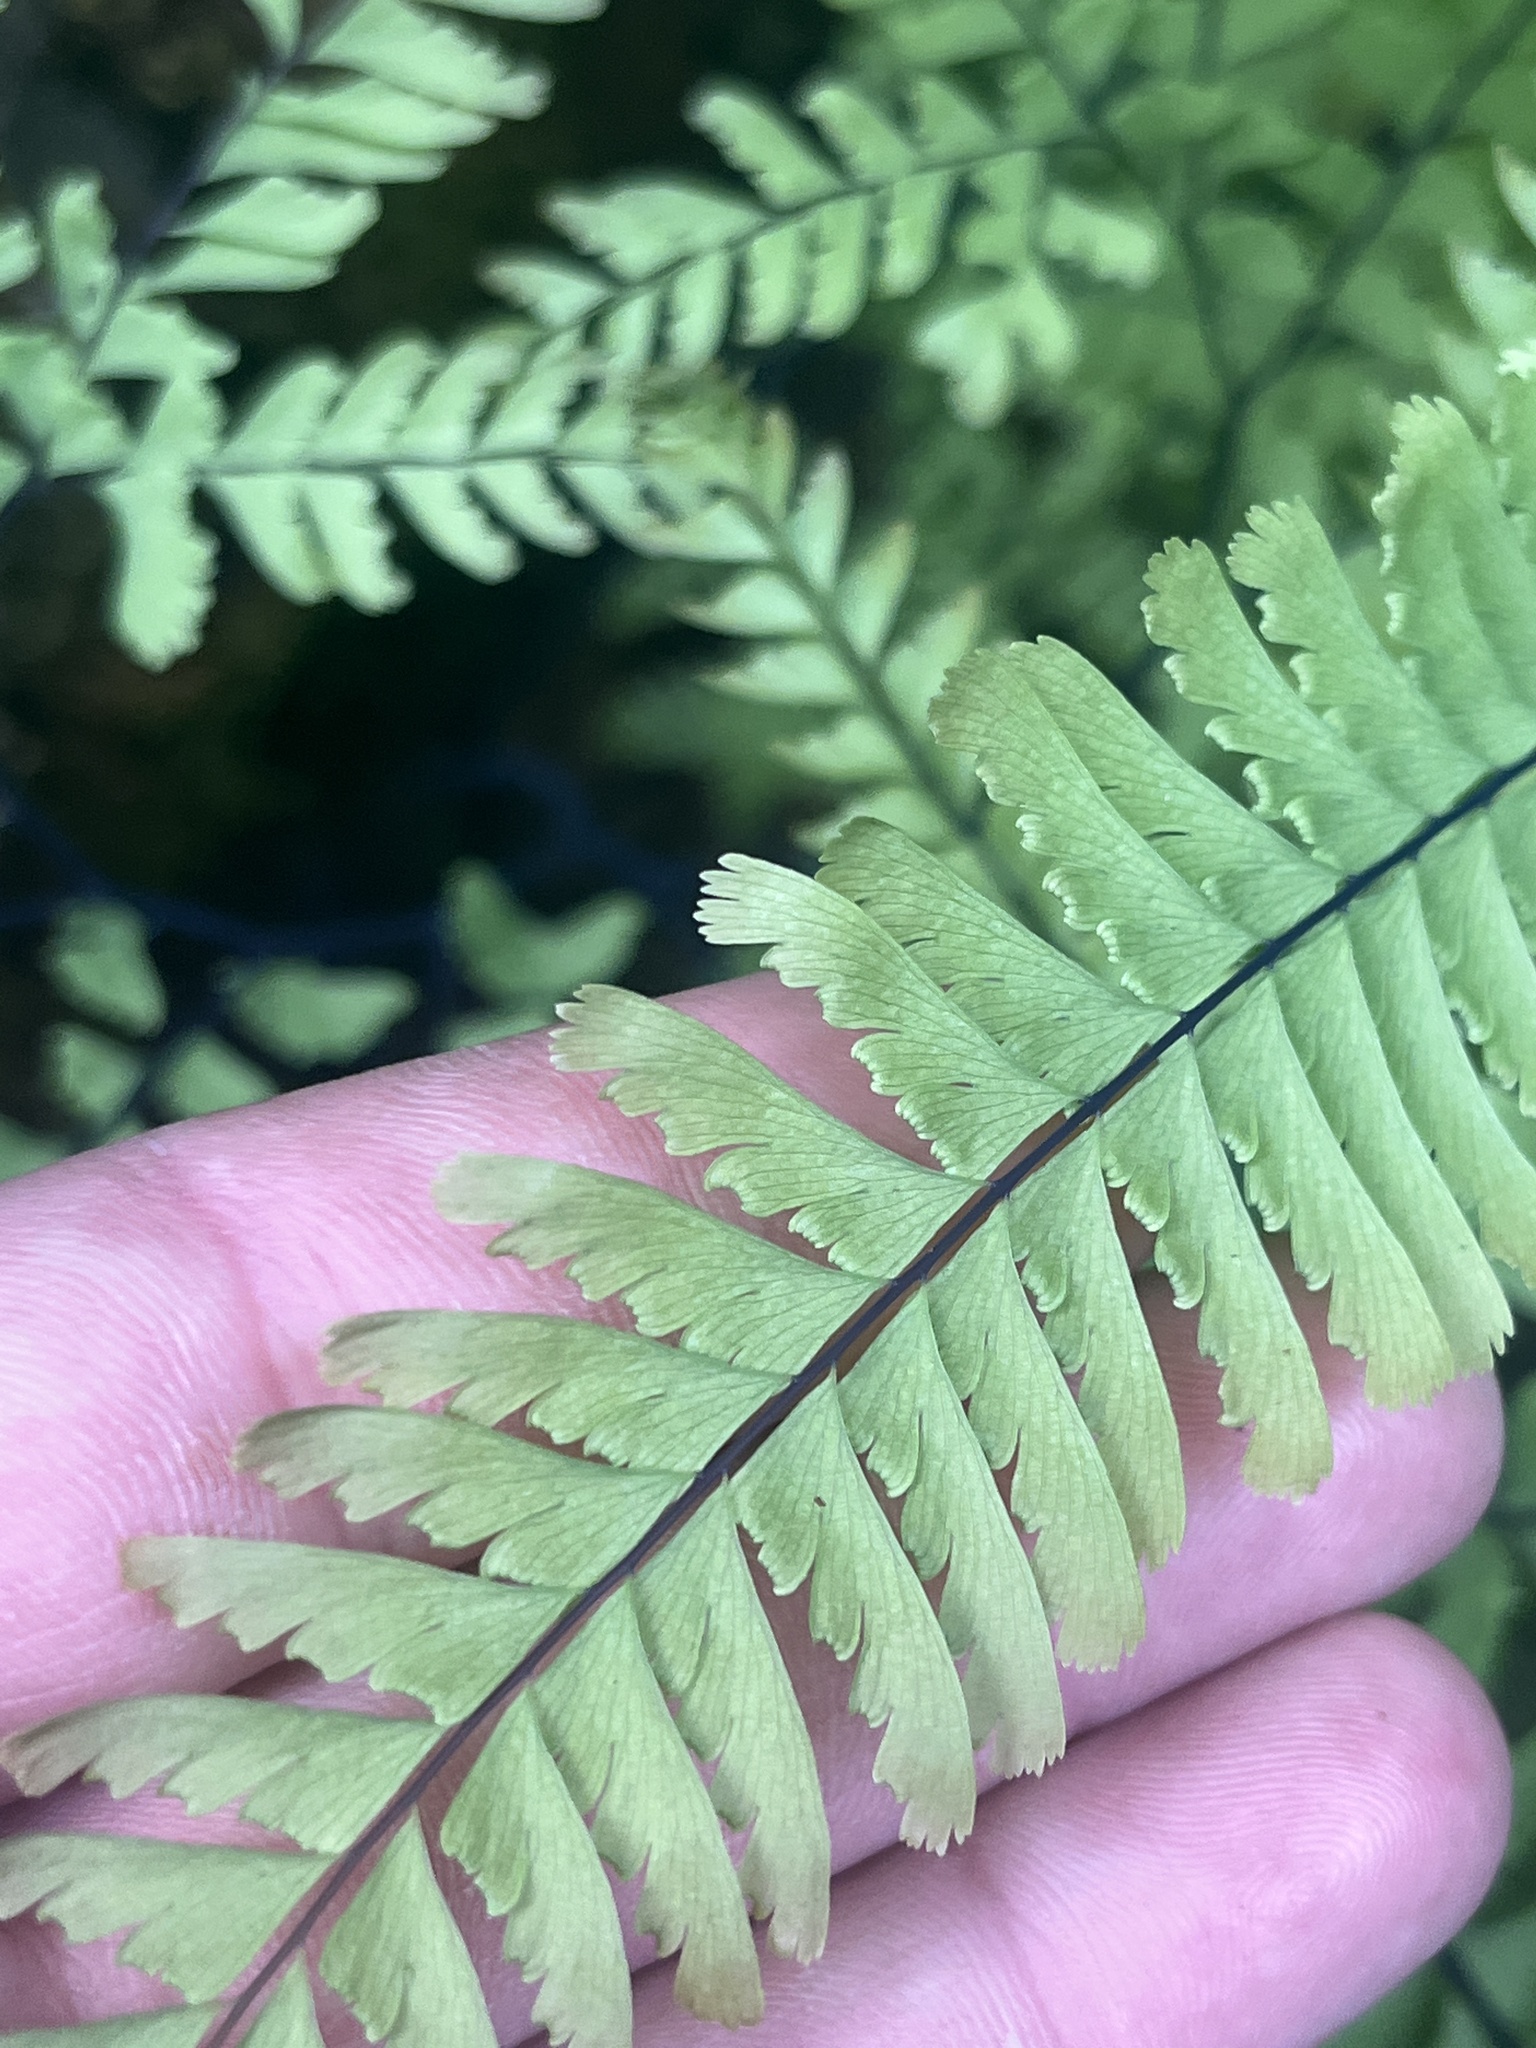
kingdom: Plantae
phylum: Tracheophyta
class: Polypodiopsida
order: Polypodiales
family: Pteridaceae
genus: Adiantum
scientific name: Adiantum aleuticum
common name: Aleutian maidenhair fern
